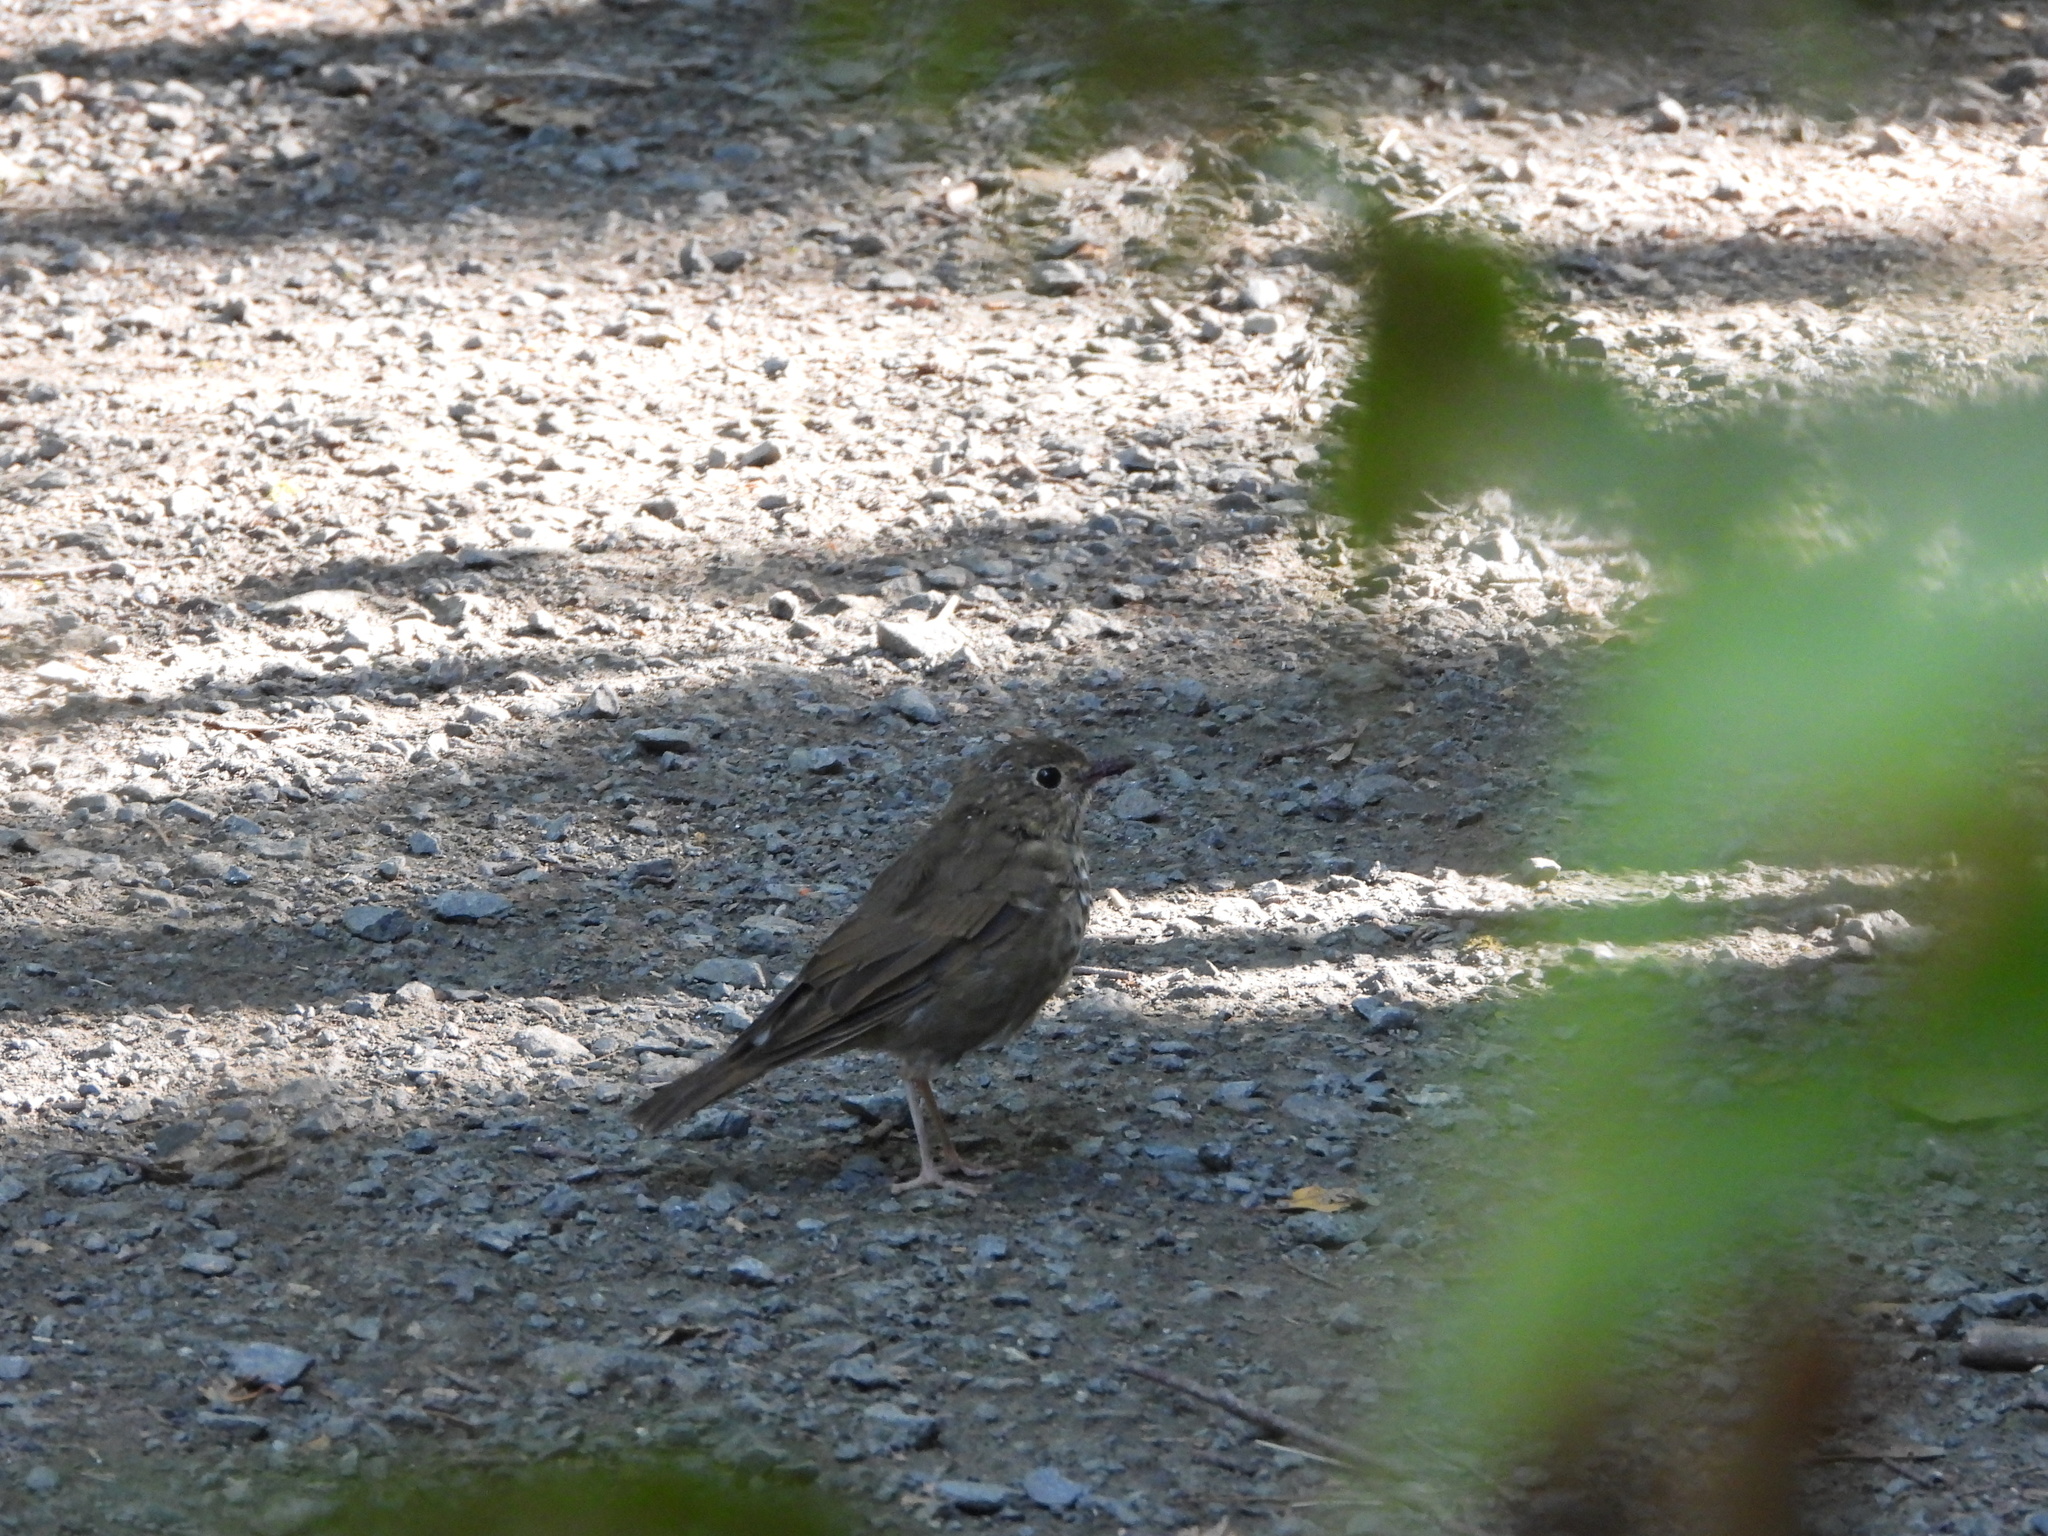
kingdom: Animalia
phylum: Chordata
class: Aves
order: Passeriformes
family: Turdidae
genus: Catharus
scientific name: Catharus ustulatus
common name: Swainson's thrush
